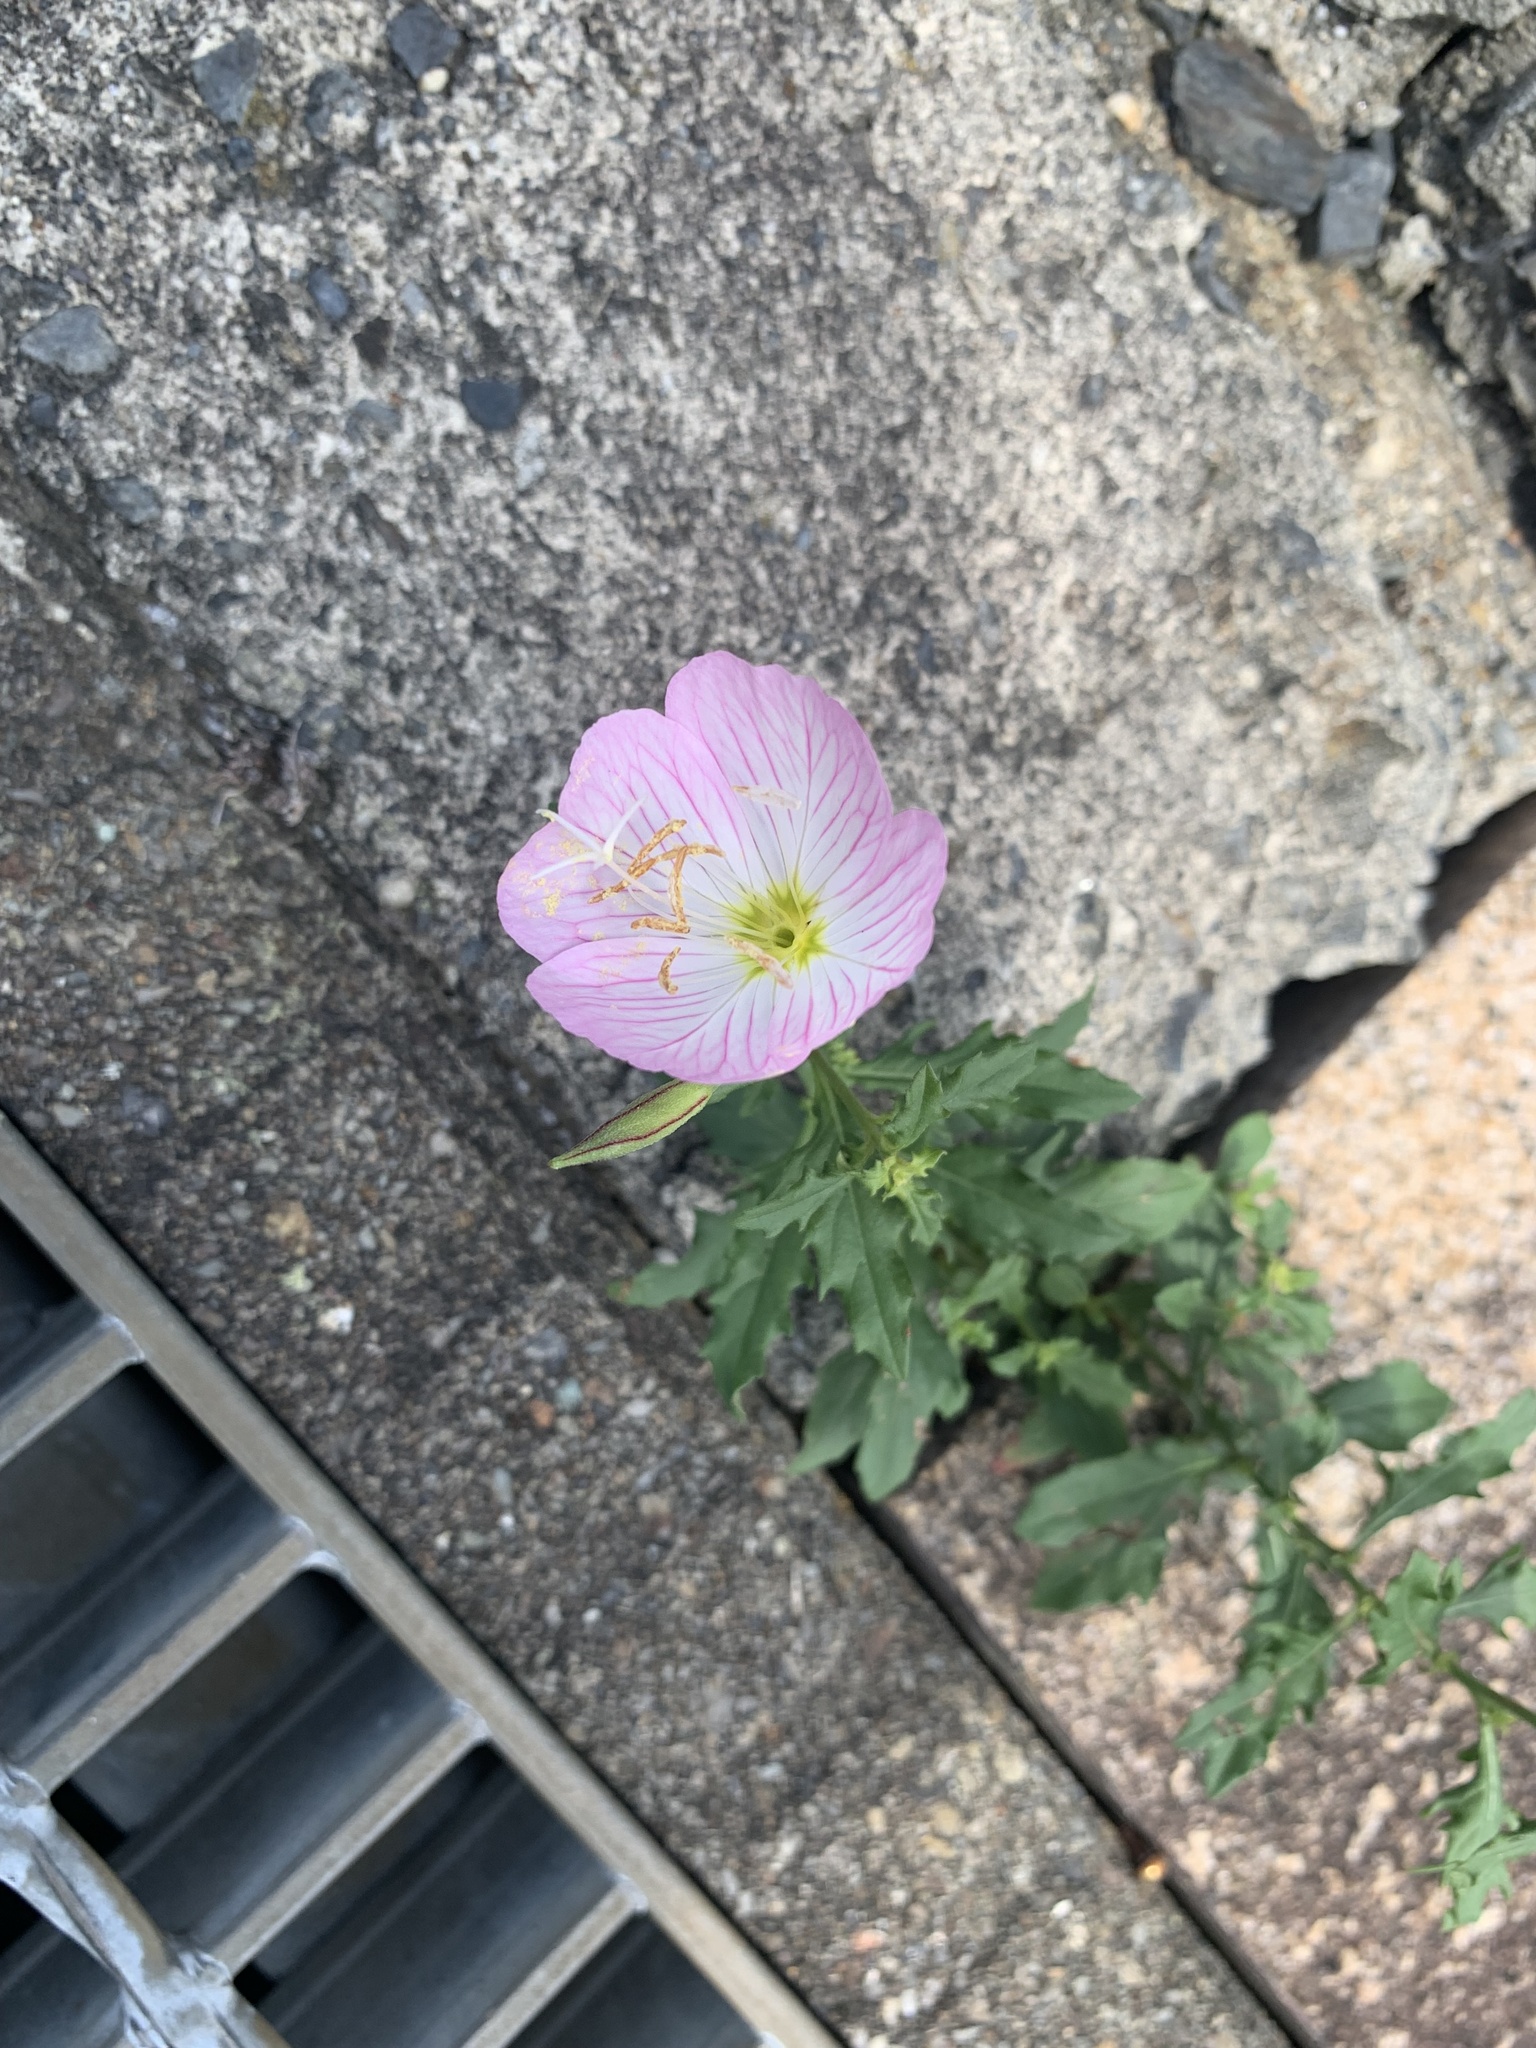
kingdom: Plantae
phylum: Tracheophyta
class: Magnoliopsida
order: Myrtales
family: Onagraceae
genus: Oenothera
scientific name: Oenothera speciosa
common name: White evening-primrose
